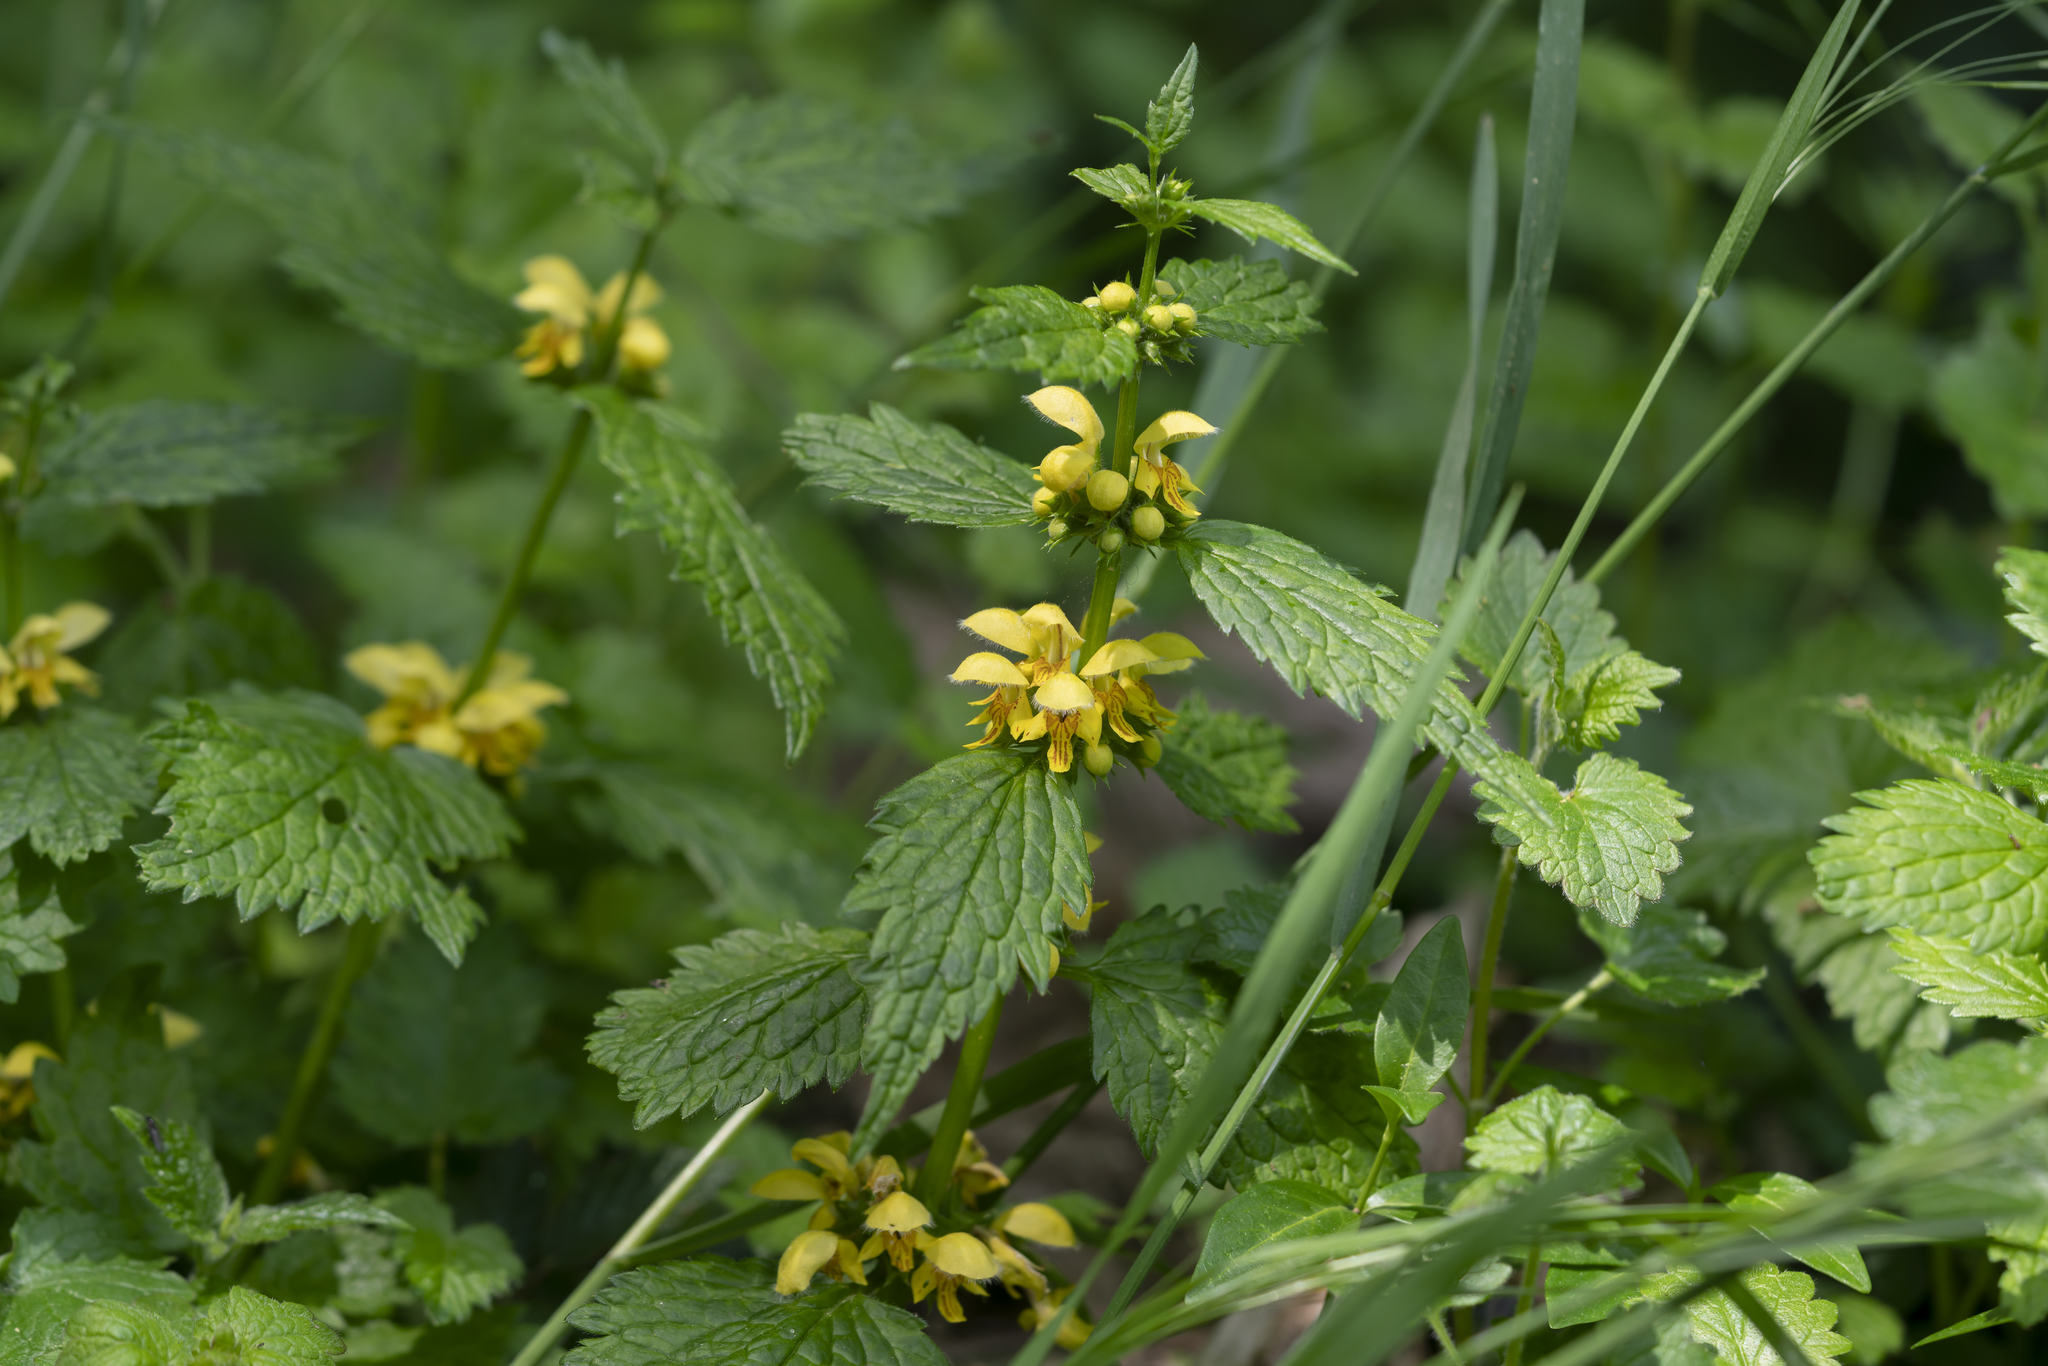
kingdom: Plantae
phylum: Tracheophyta
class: Magnoliopsida
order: Lamiales
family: Lamiaceae
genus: Lamium
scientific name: Lamium galeobdolon
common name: Yellow archangel
